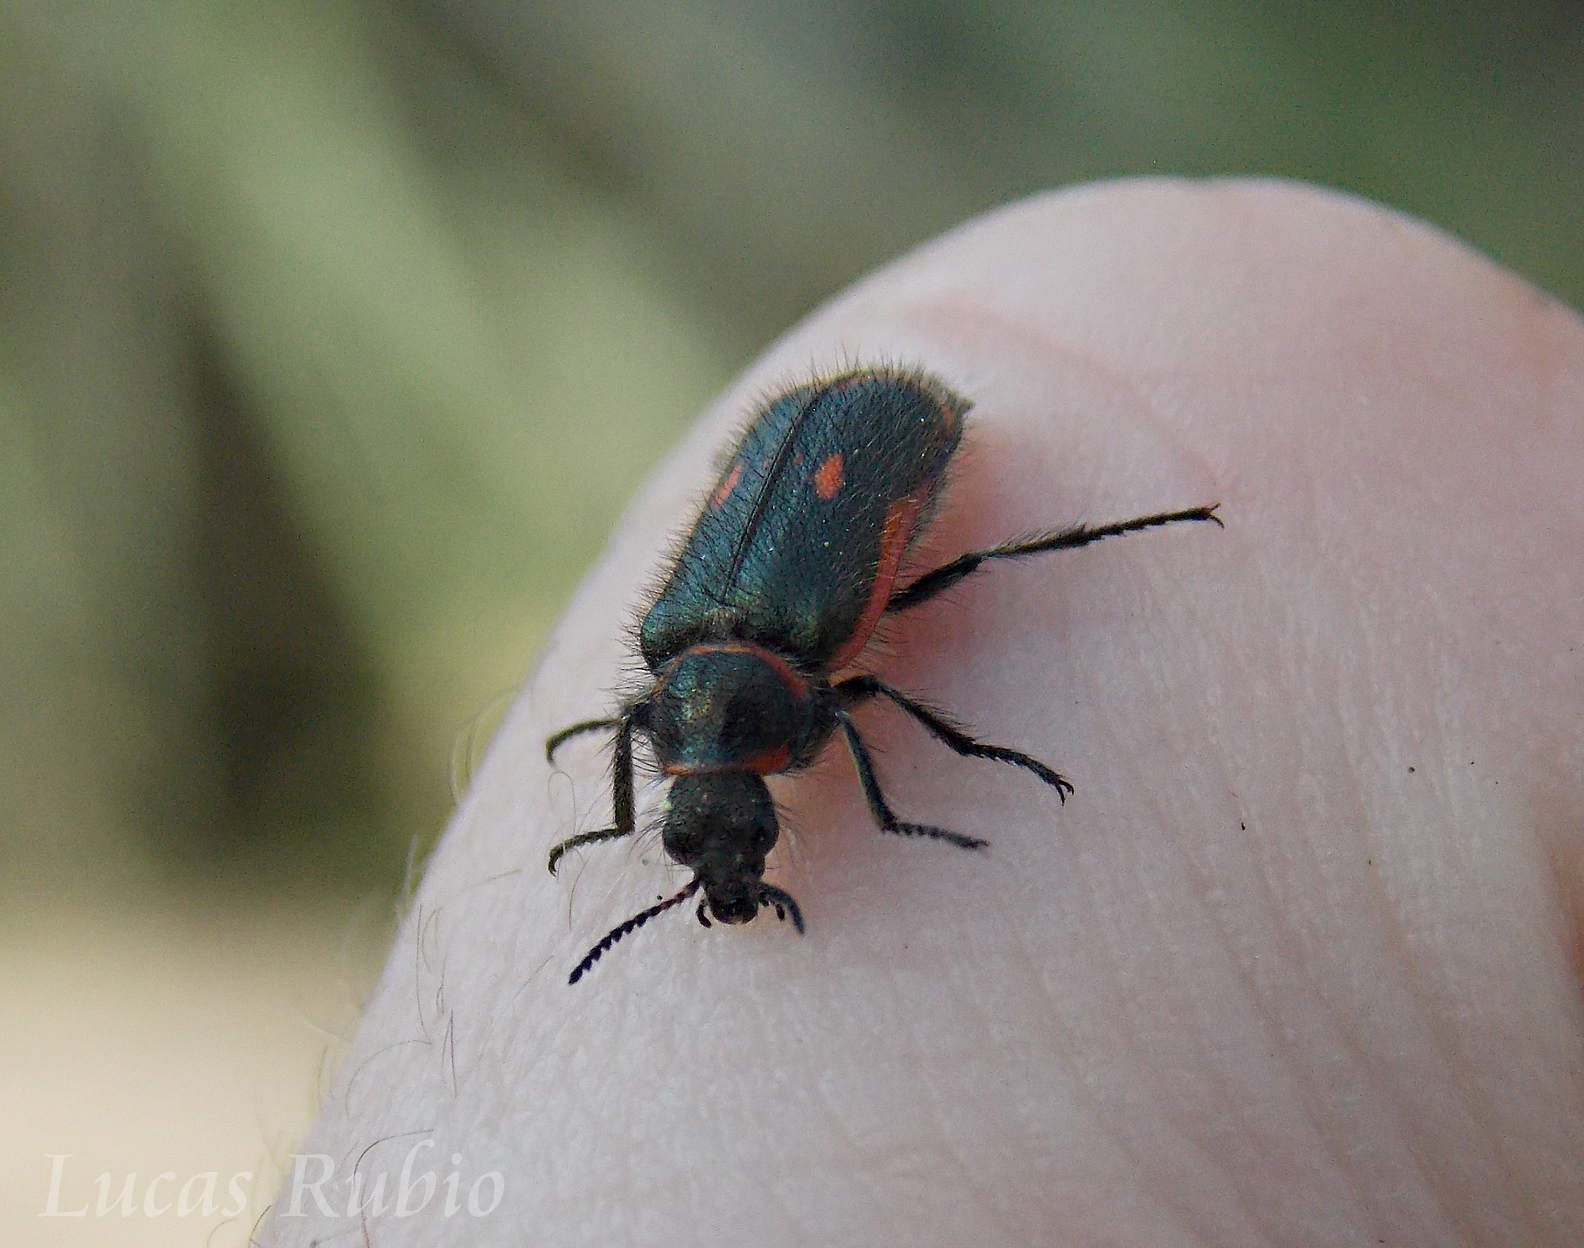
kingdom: Animalia
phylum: Arthropoda
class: Insecta
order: Coleoptera
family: Melyridae
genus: Astylus
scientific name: Astylus
